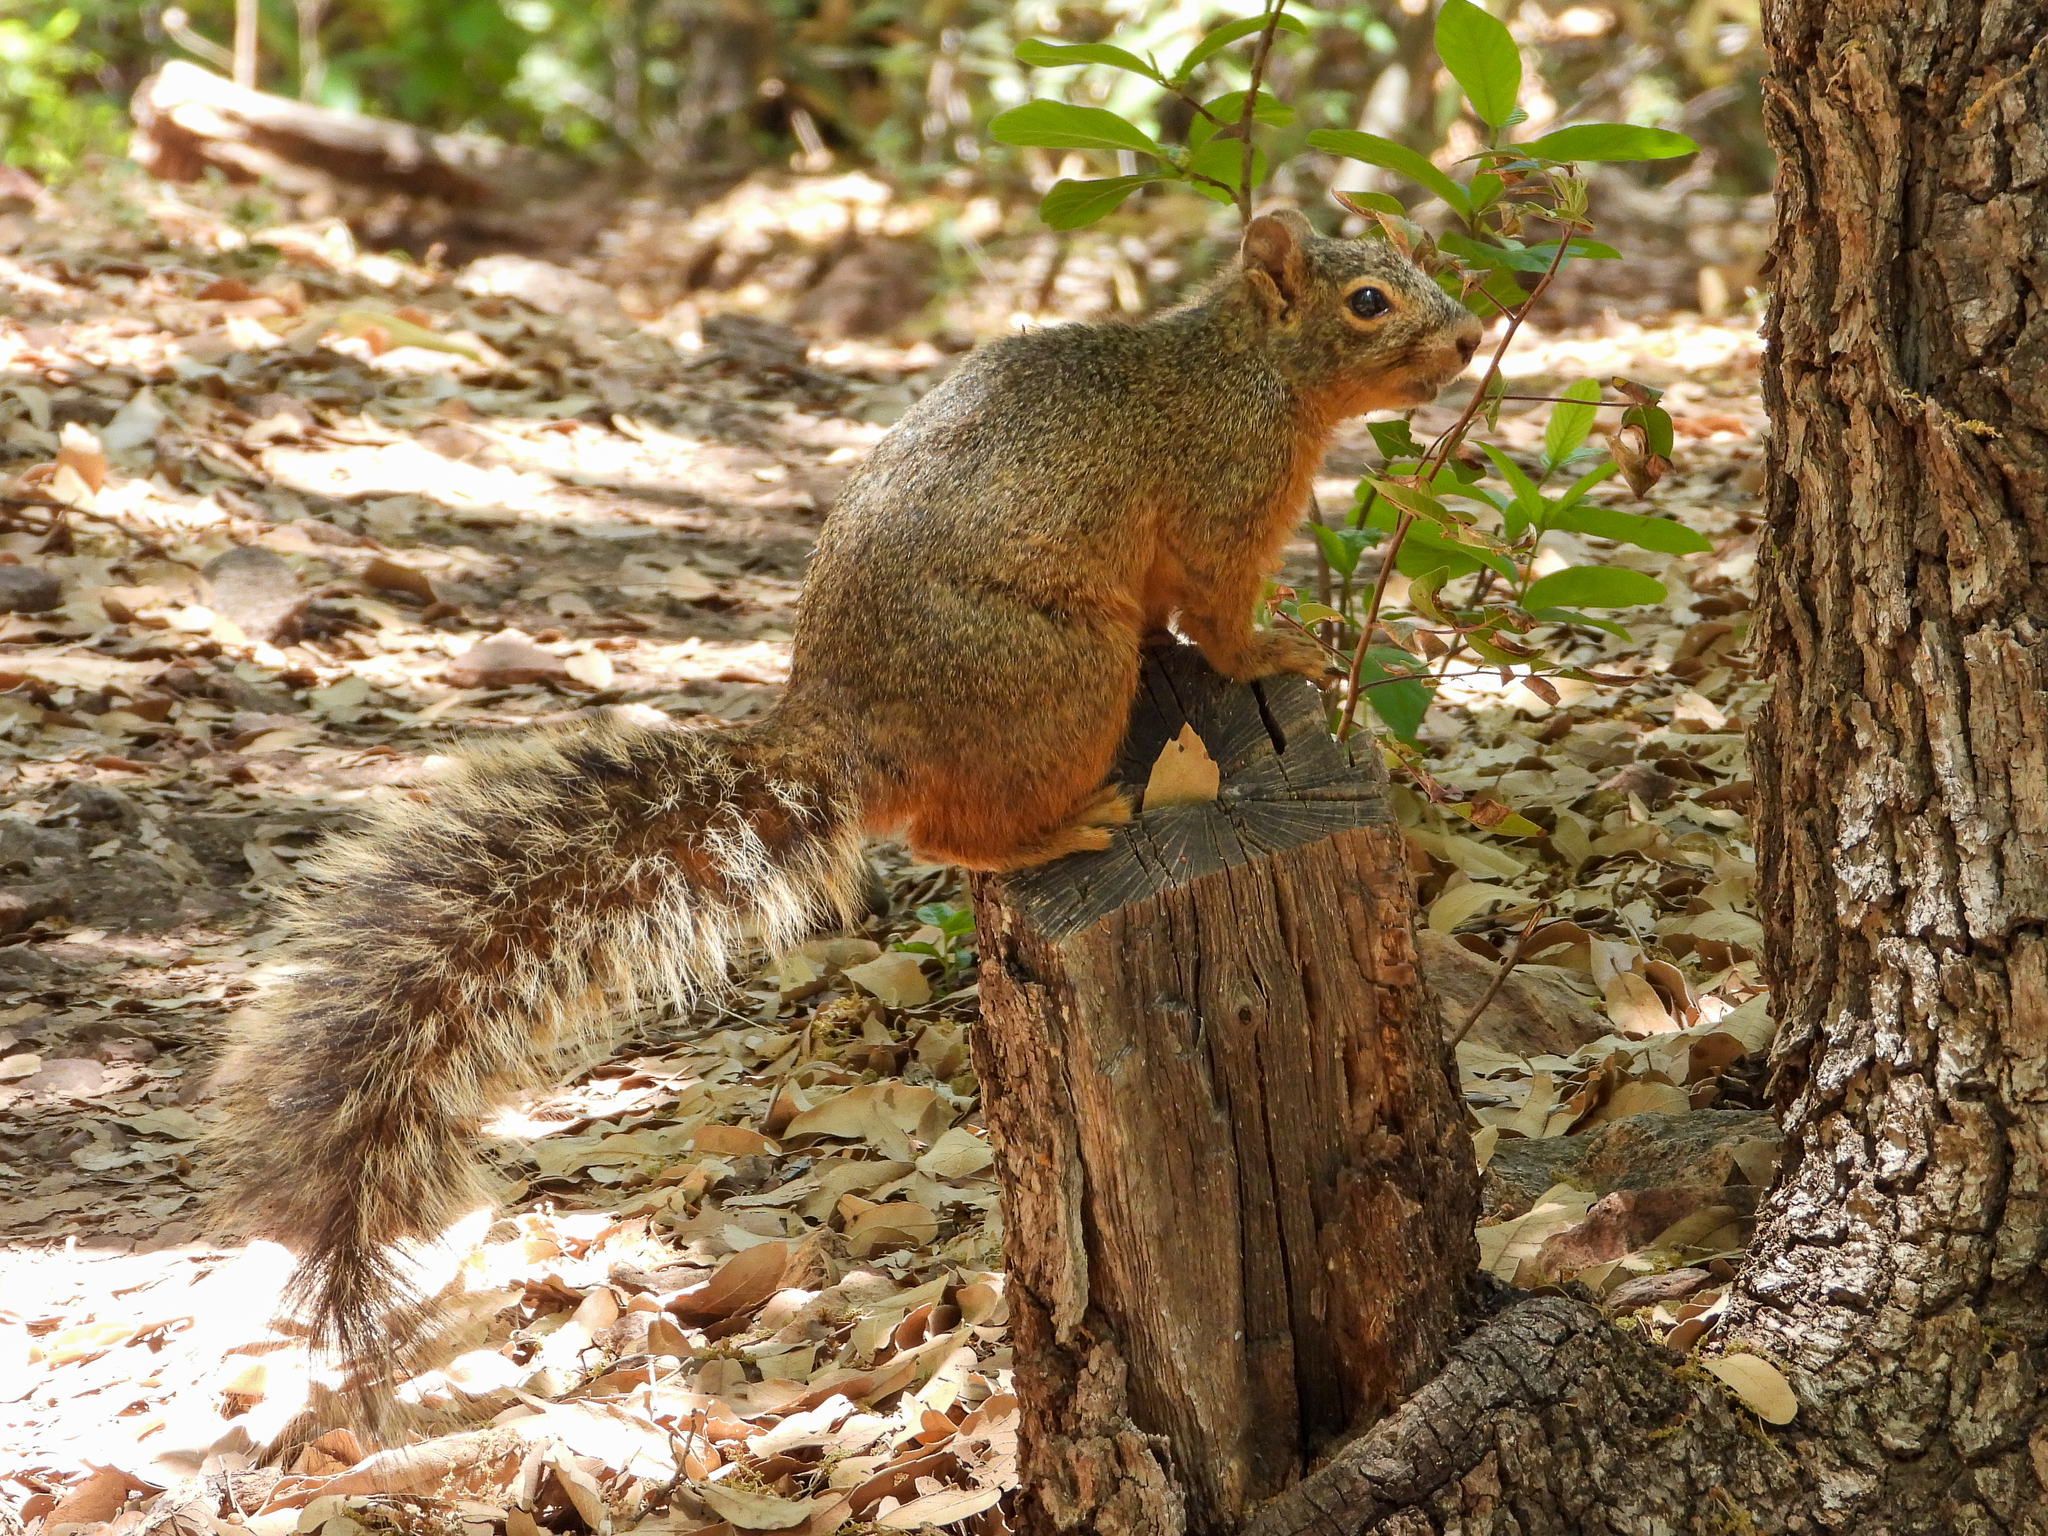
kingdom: Animalia
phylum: Chordata
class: Mammalia
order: Rodentia
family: Sciuridae
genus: Sciurus
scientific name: Sciurus nayaritensis
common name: Mexican fox squirrel
